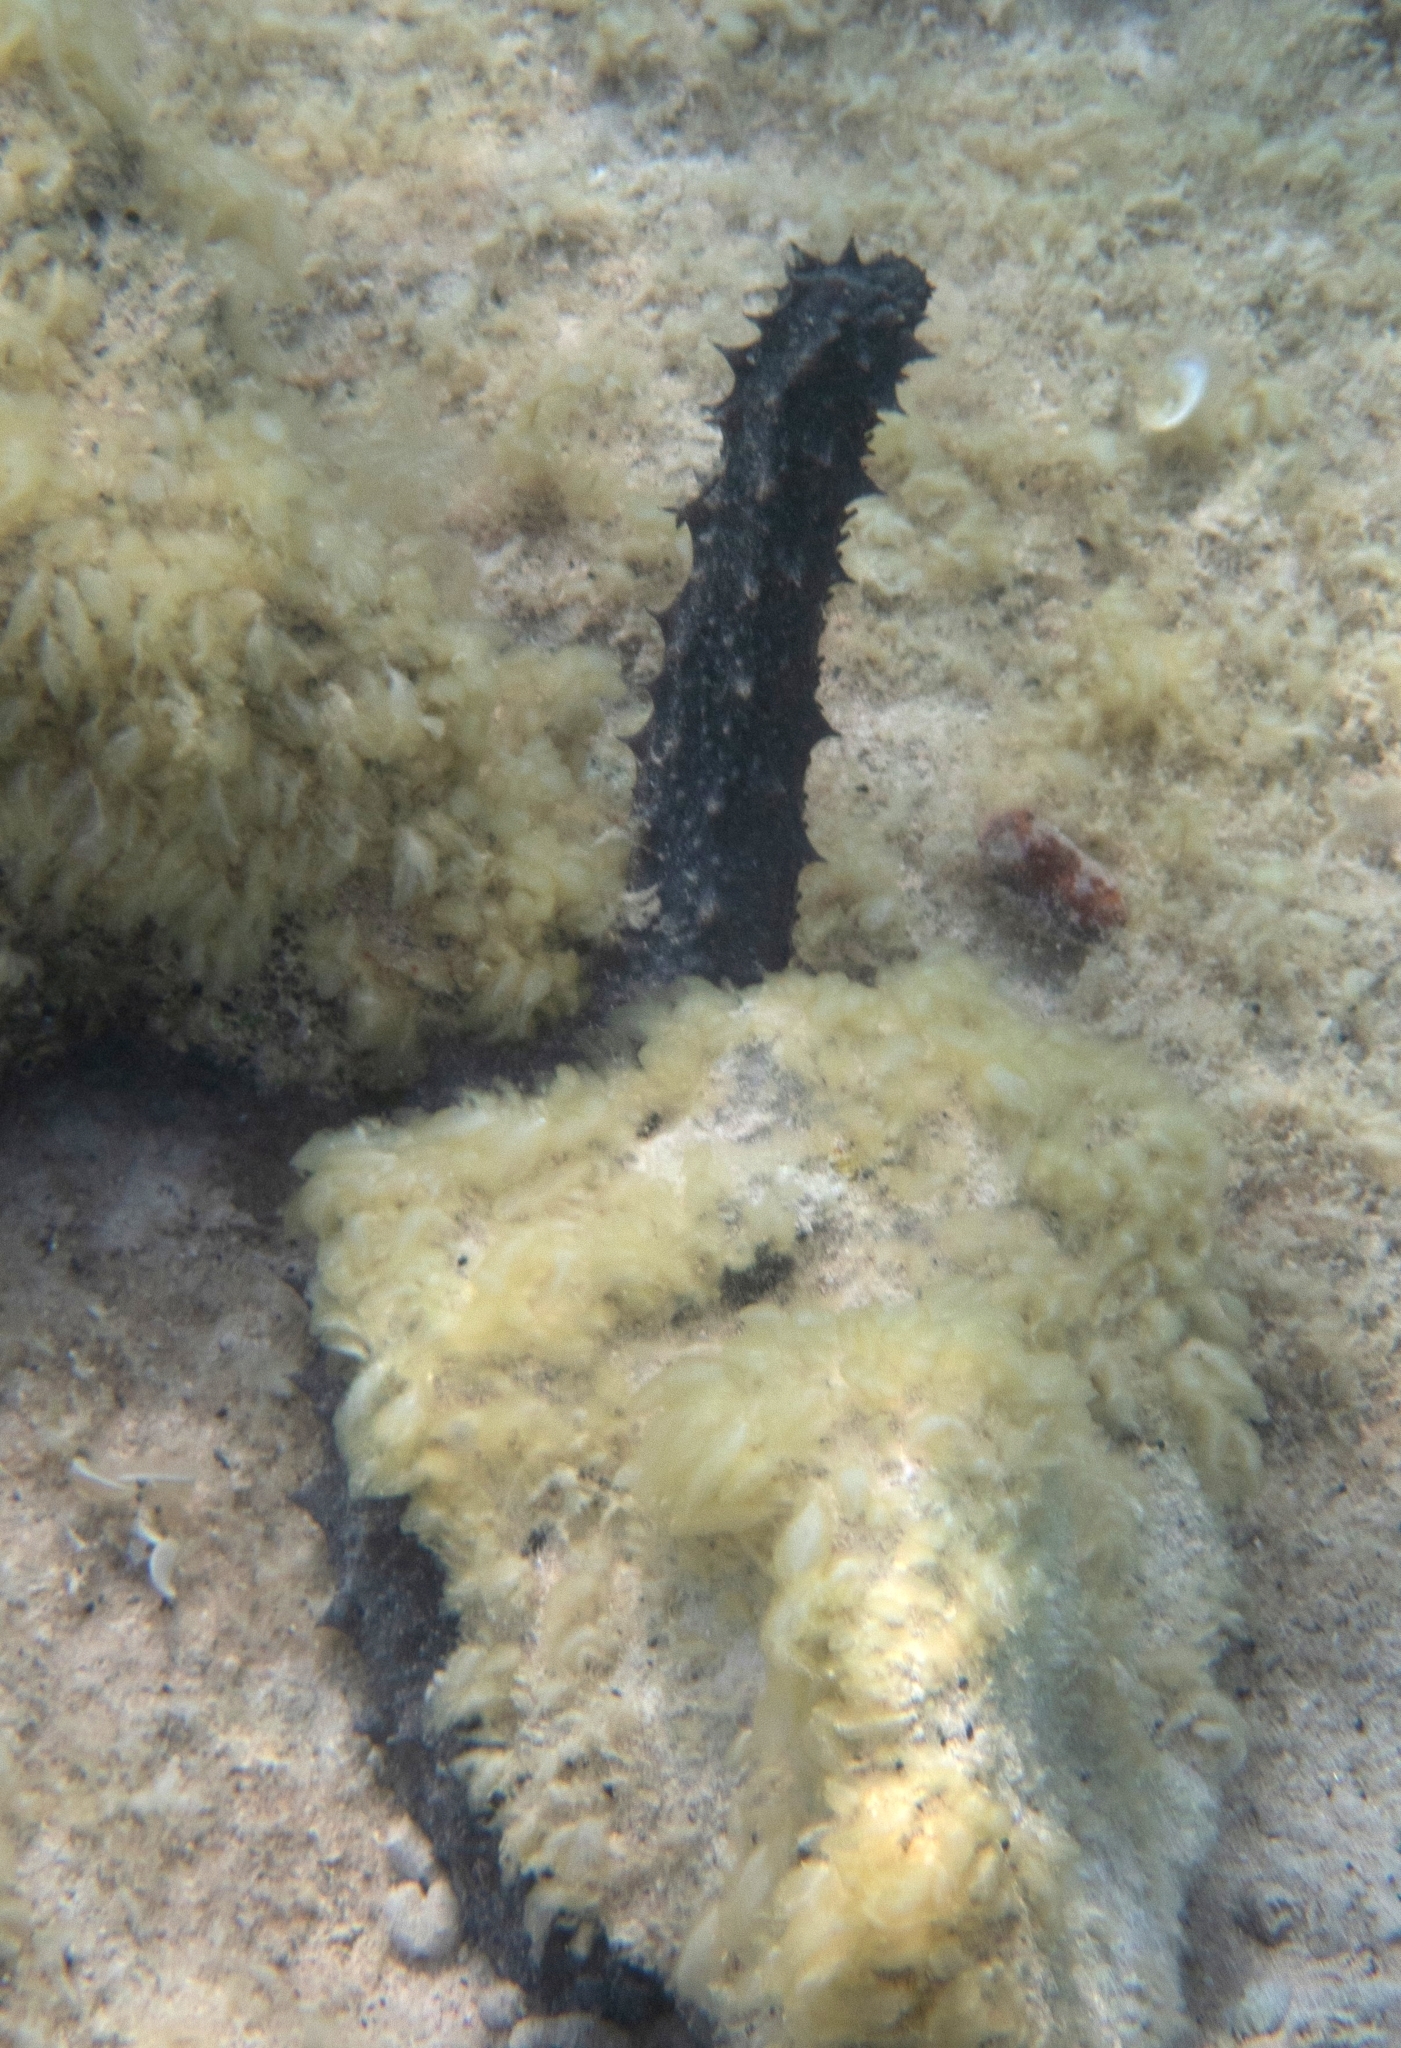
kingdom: Animalia
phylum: Echinodermata
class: Holothuroidea
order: Holothuriida
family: Holothuriidae
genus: Holothuria
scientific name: Holothuria tubulosa
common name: Cotton-spinner
